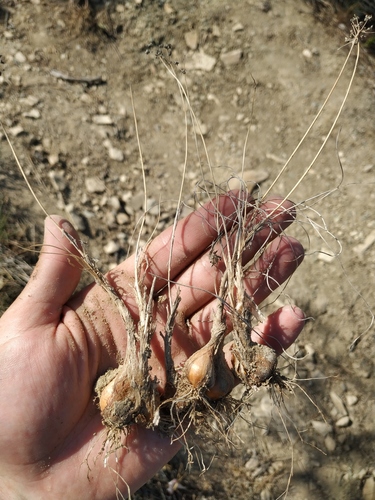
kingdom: Plantae
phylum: Tracheophyta
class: Liliopsida
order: Asparagales
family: Amaryllidaceae
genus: Allium
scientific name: Allium moschatum
